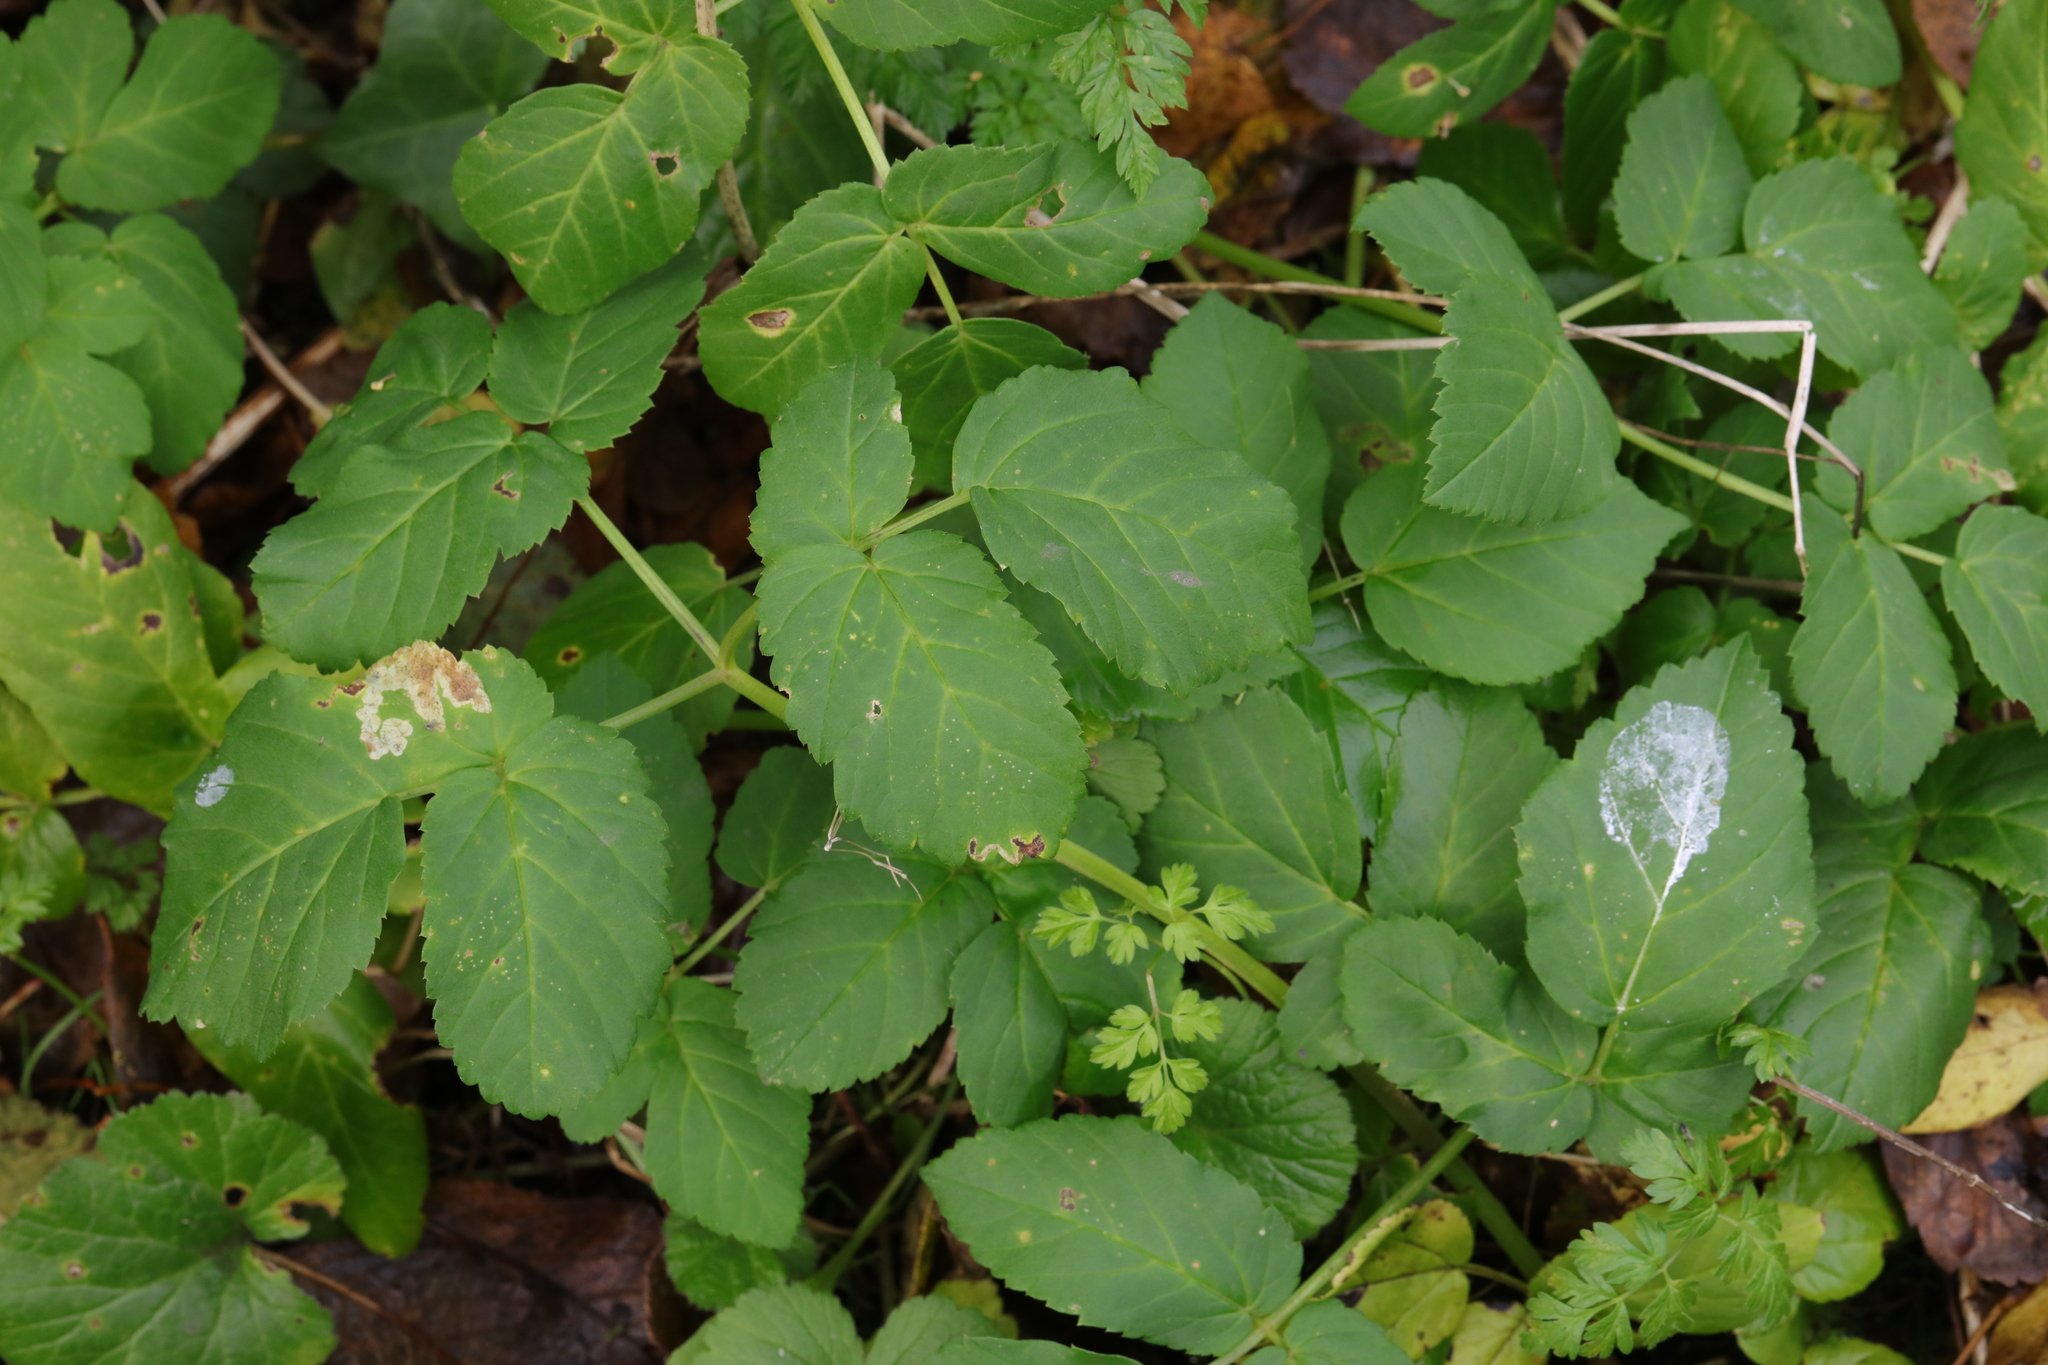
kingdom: Plantae
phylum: Tracheophyta
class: Magnoliopsida
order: Apiales
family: Apiaceae
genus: Aegopodium
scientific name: Aegopodium podagraria
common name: Ground-elder
